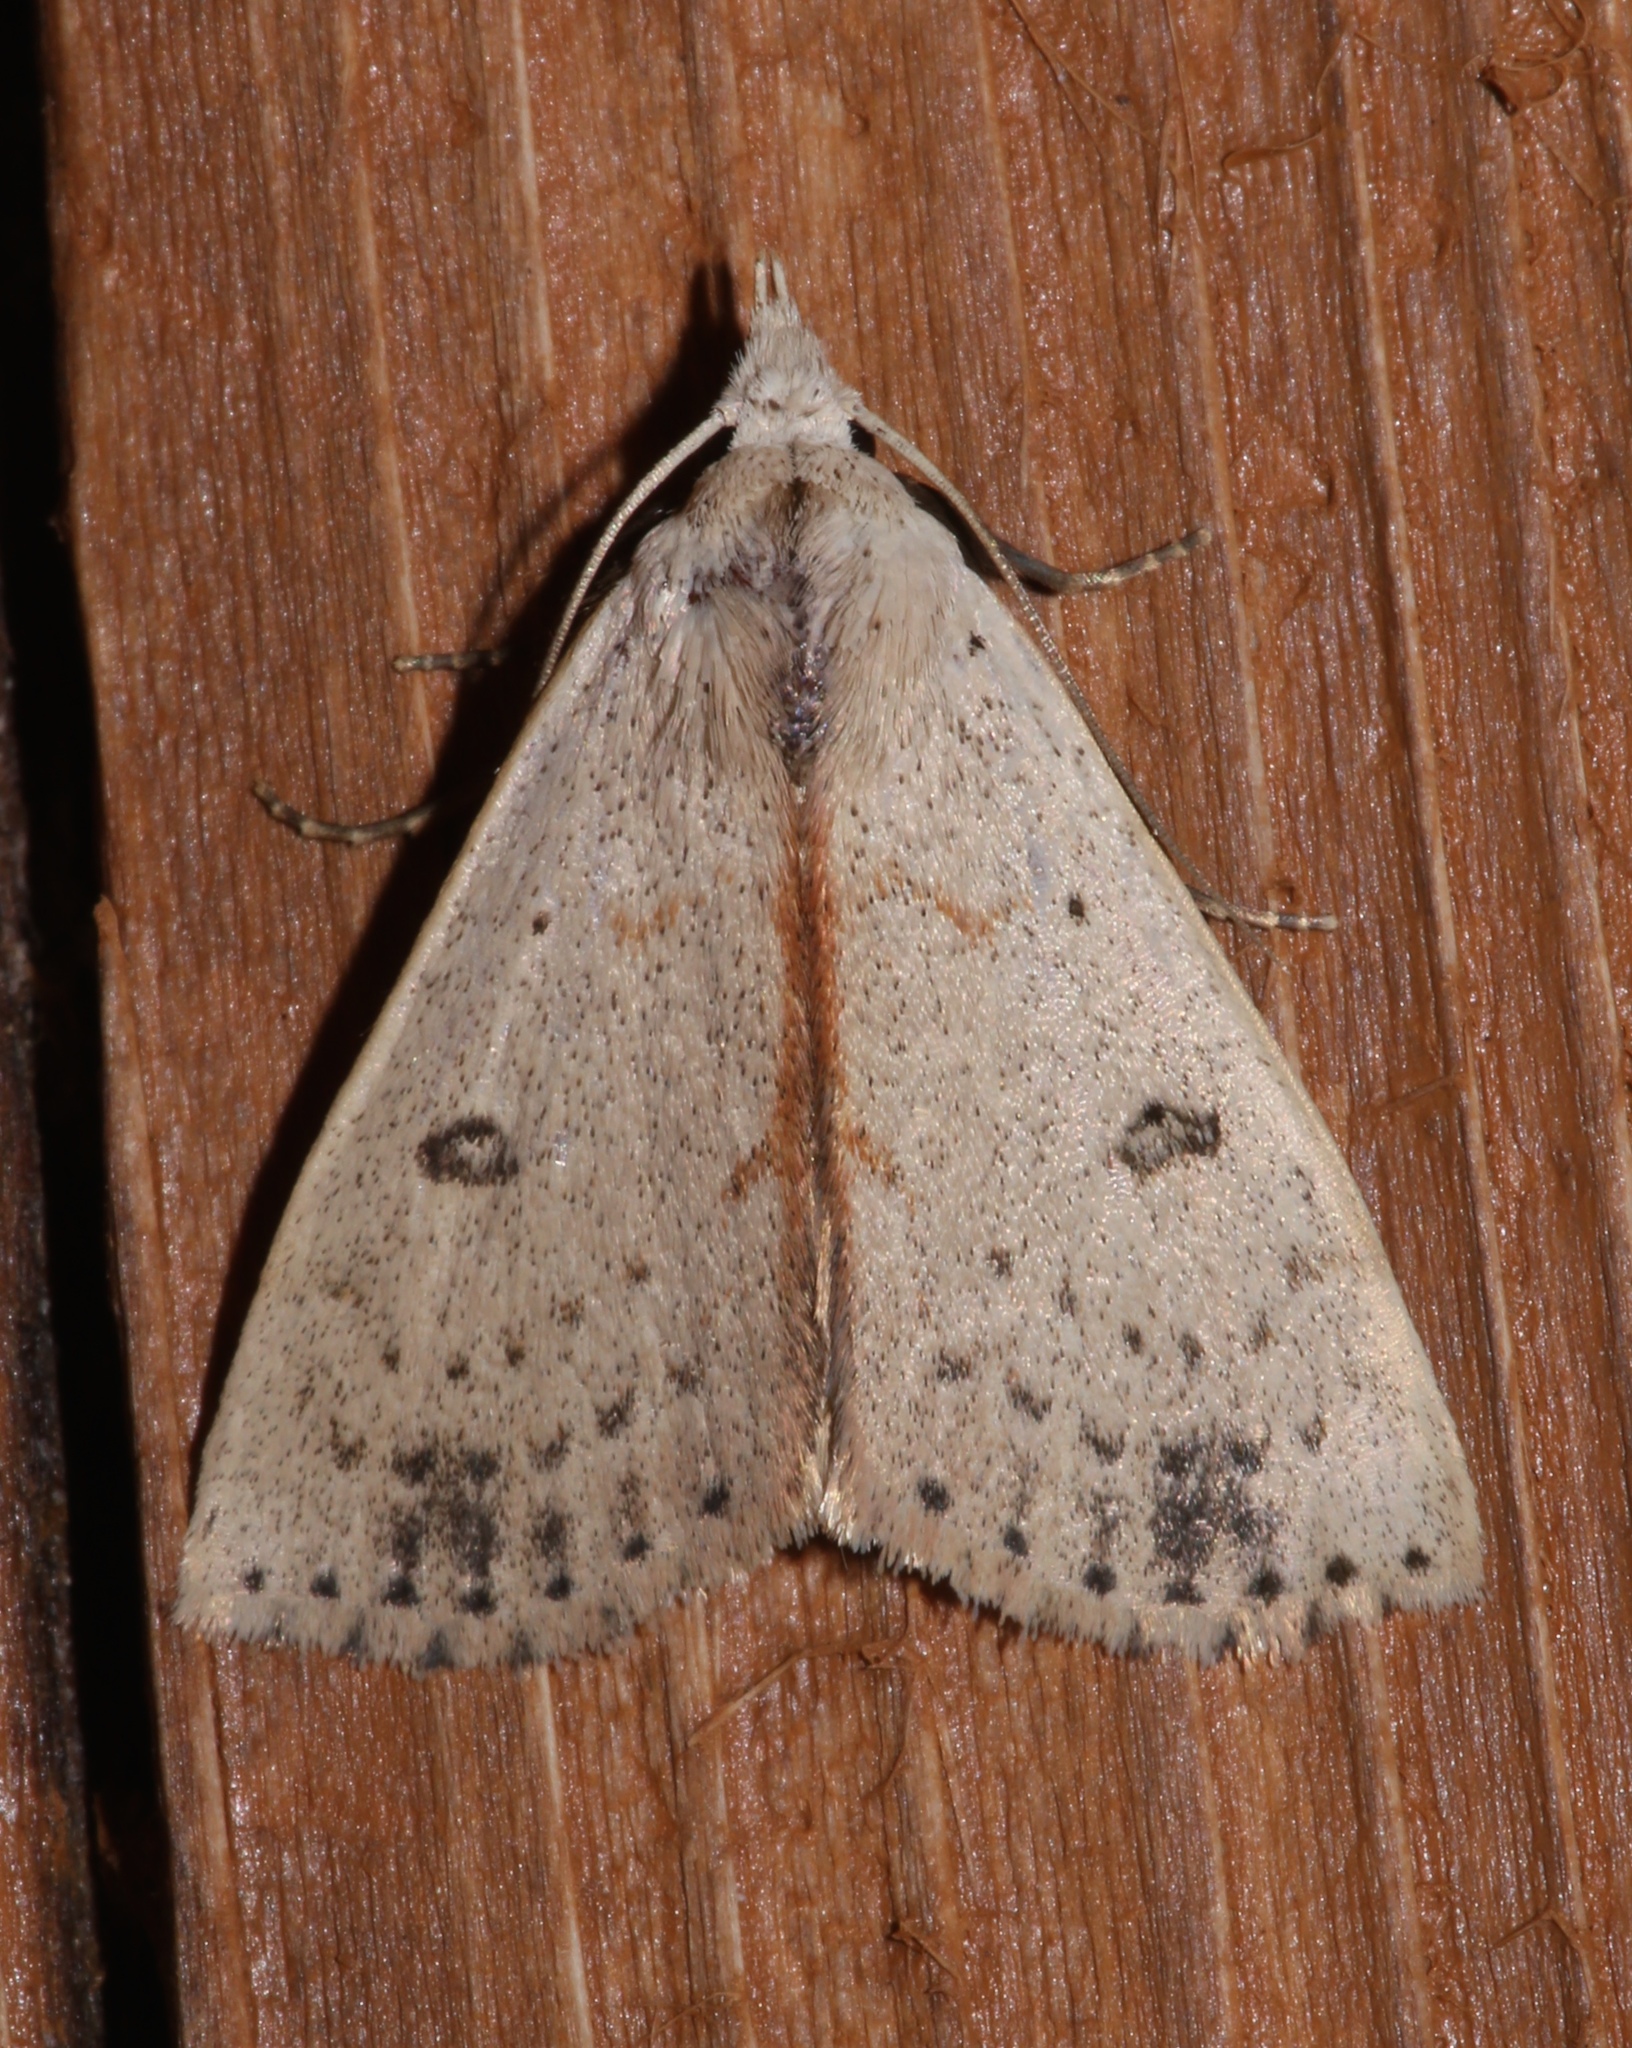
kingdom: Animalia
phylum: Arthropoda
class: Insecta
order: Lepidoptera
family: Erebidae
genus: Scolecocampa
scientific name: Scolecocampa liburna
